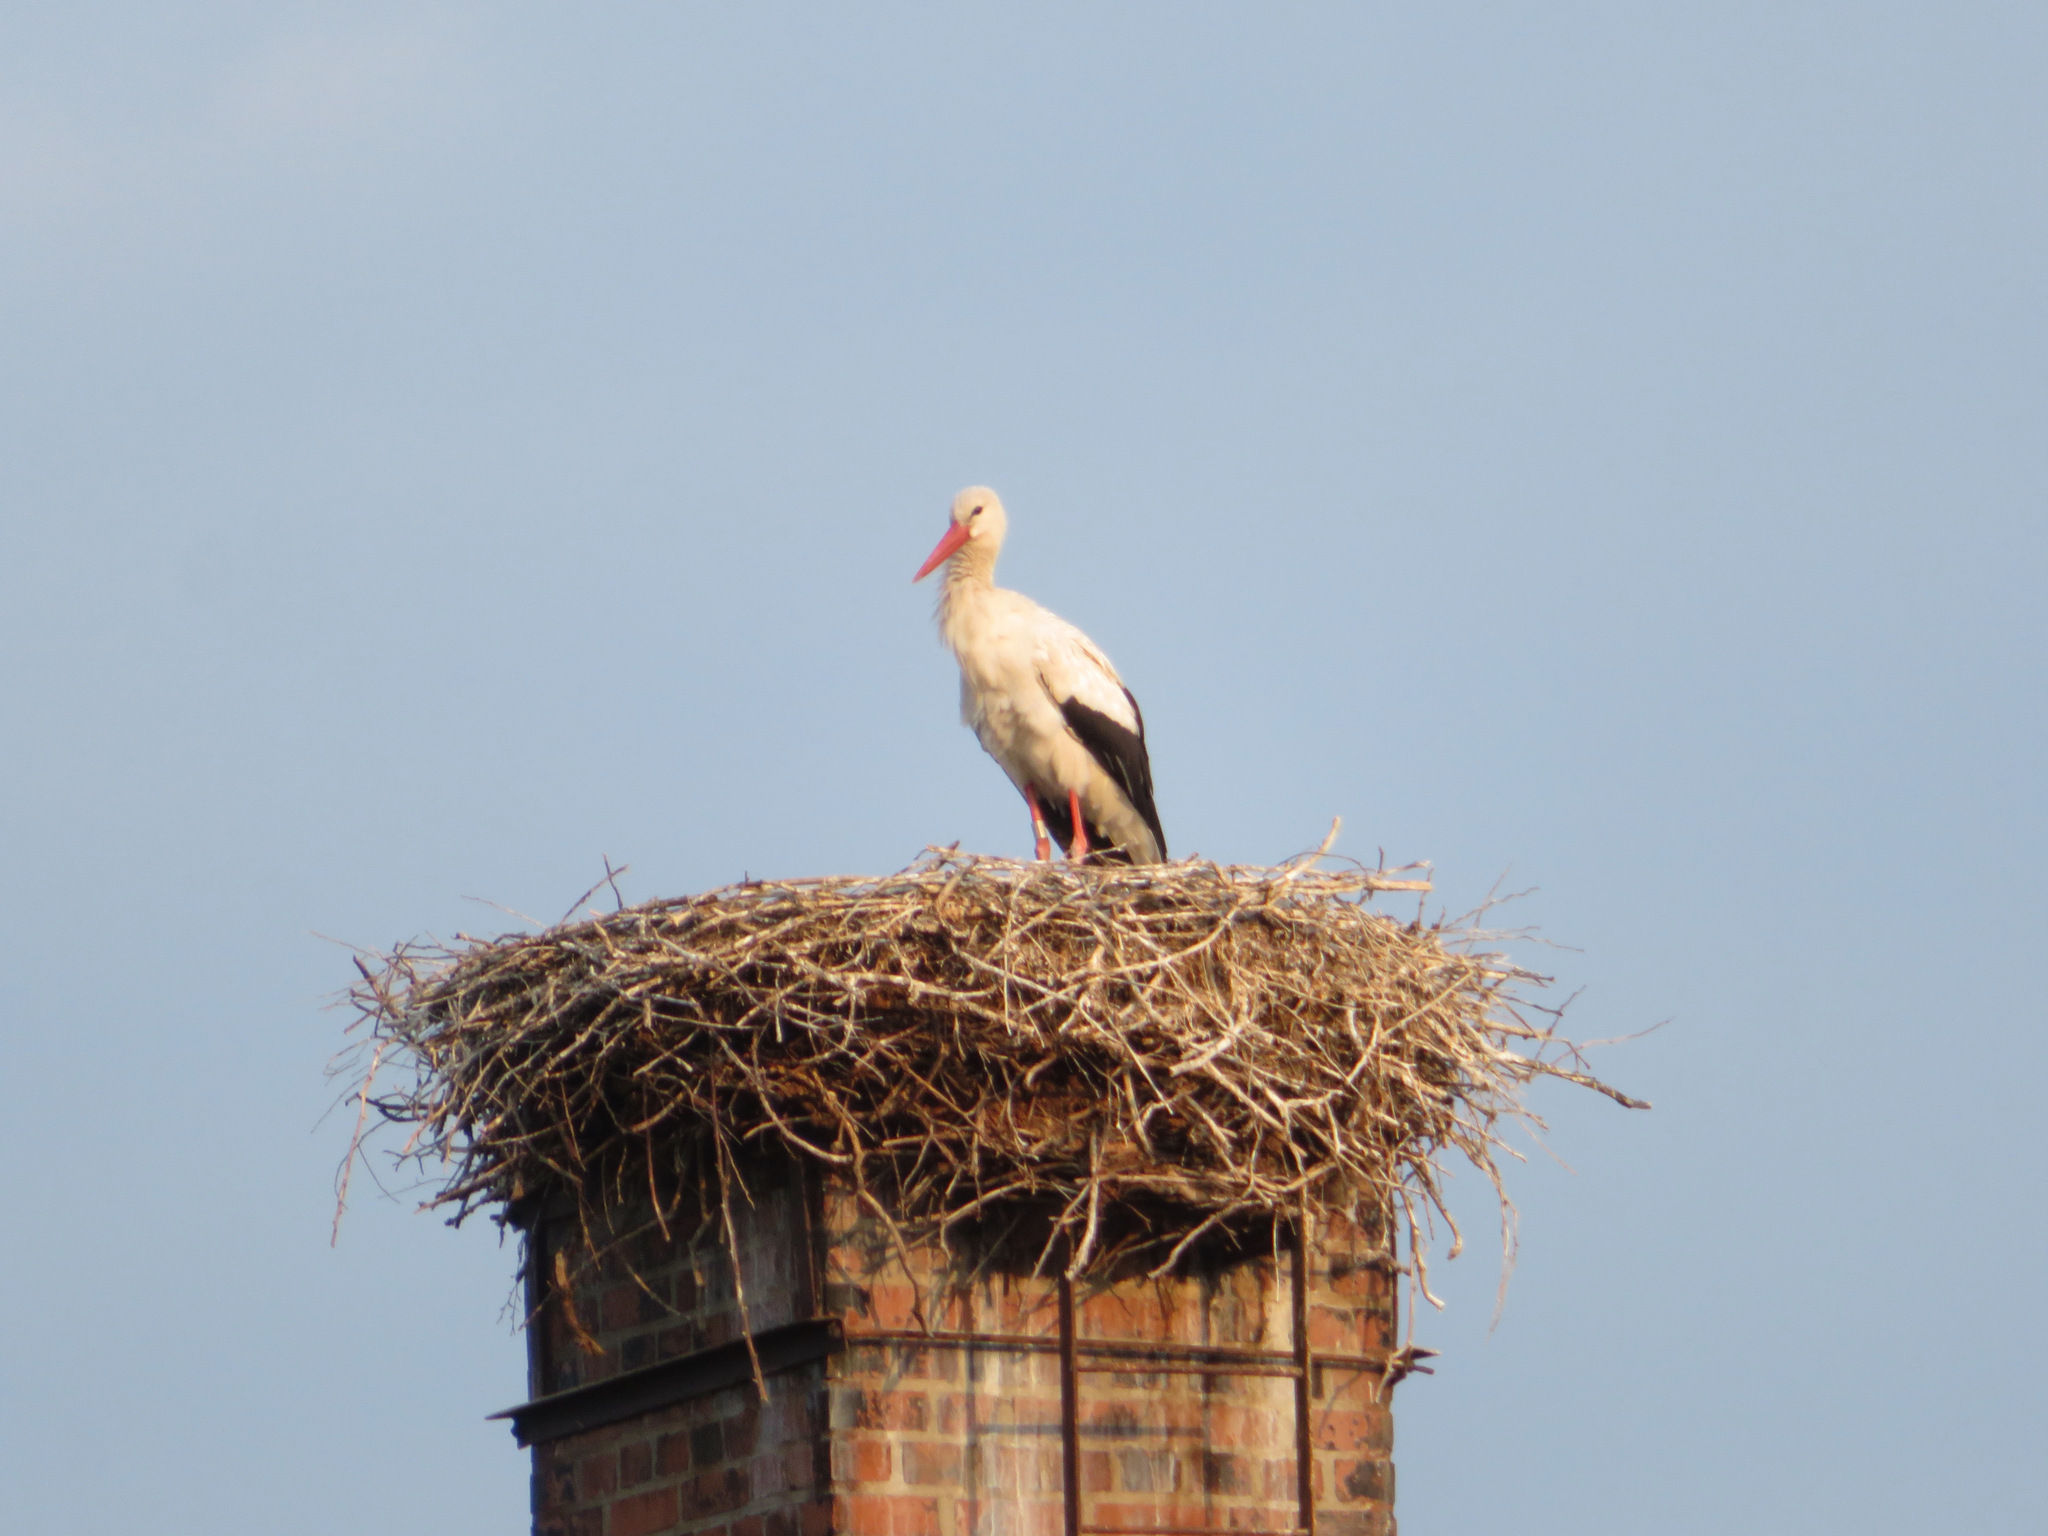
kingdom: Animalia
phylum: Chordata
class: Aves
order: Ciconiiformes
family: Ciconiidae
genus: Ciconia
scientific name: Ciconia ciconia
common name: White stork
